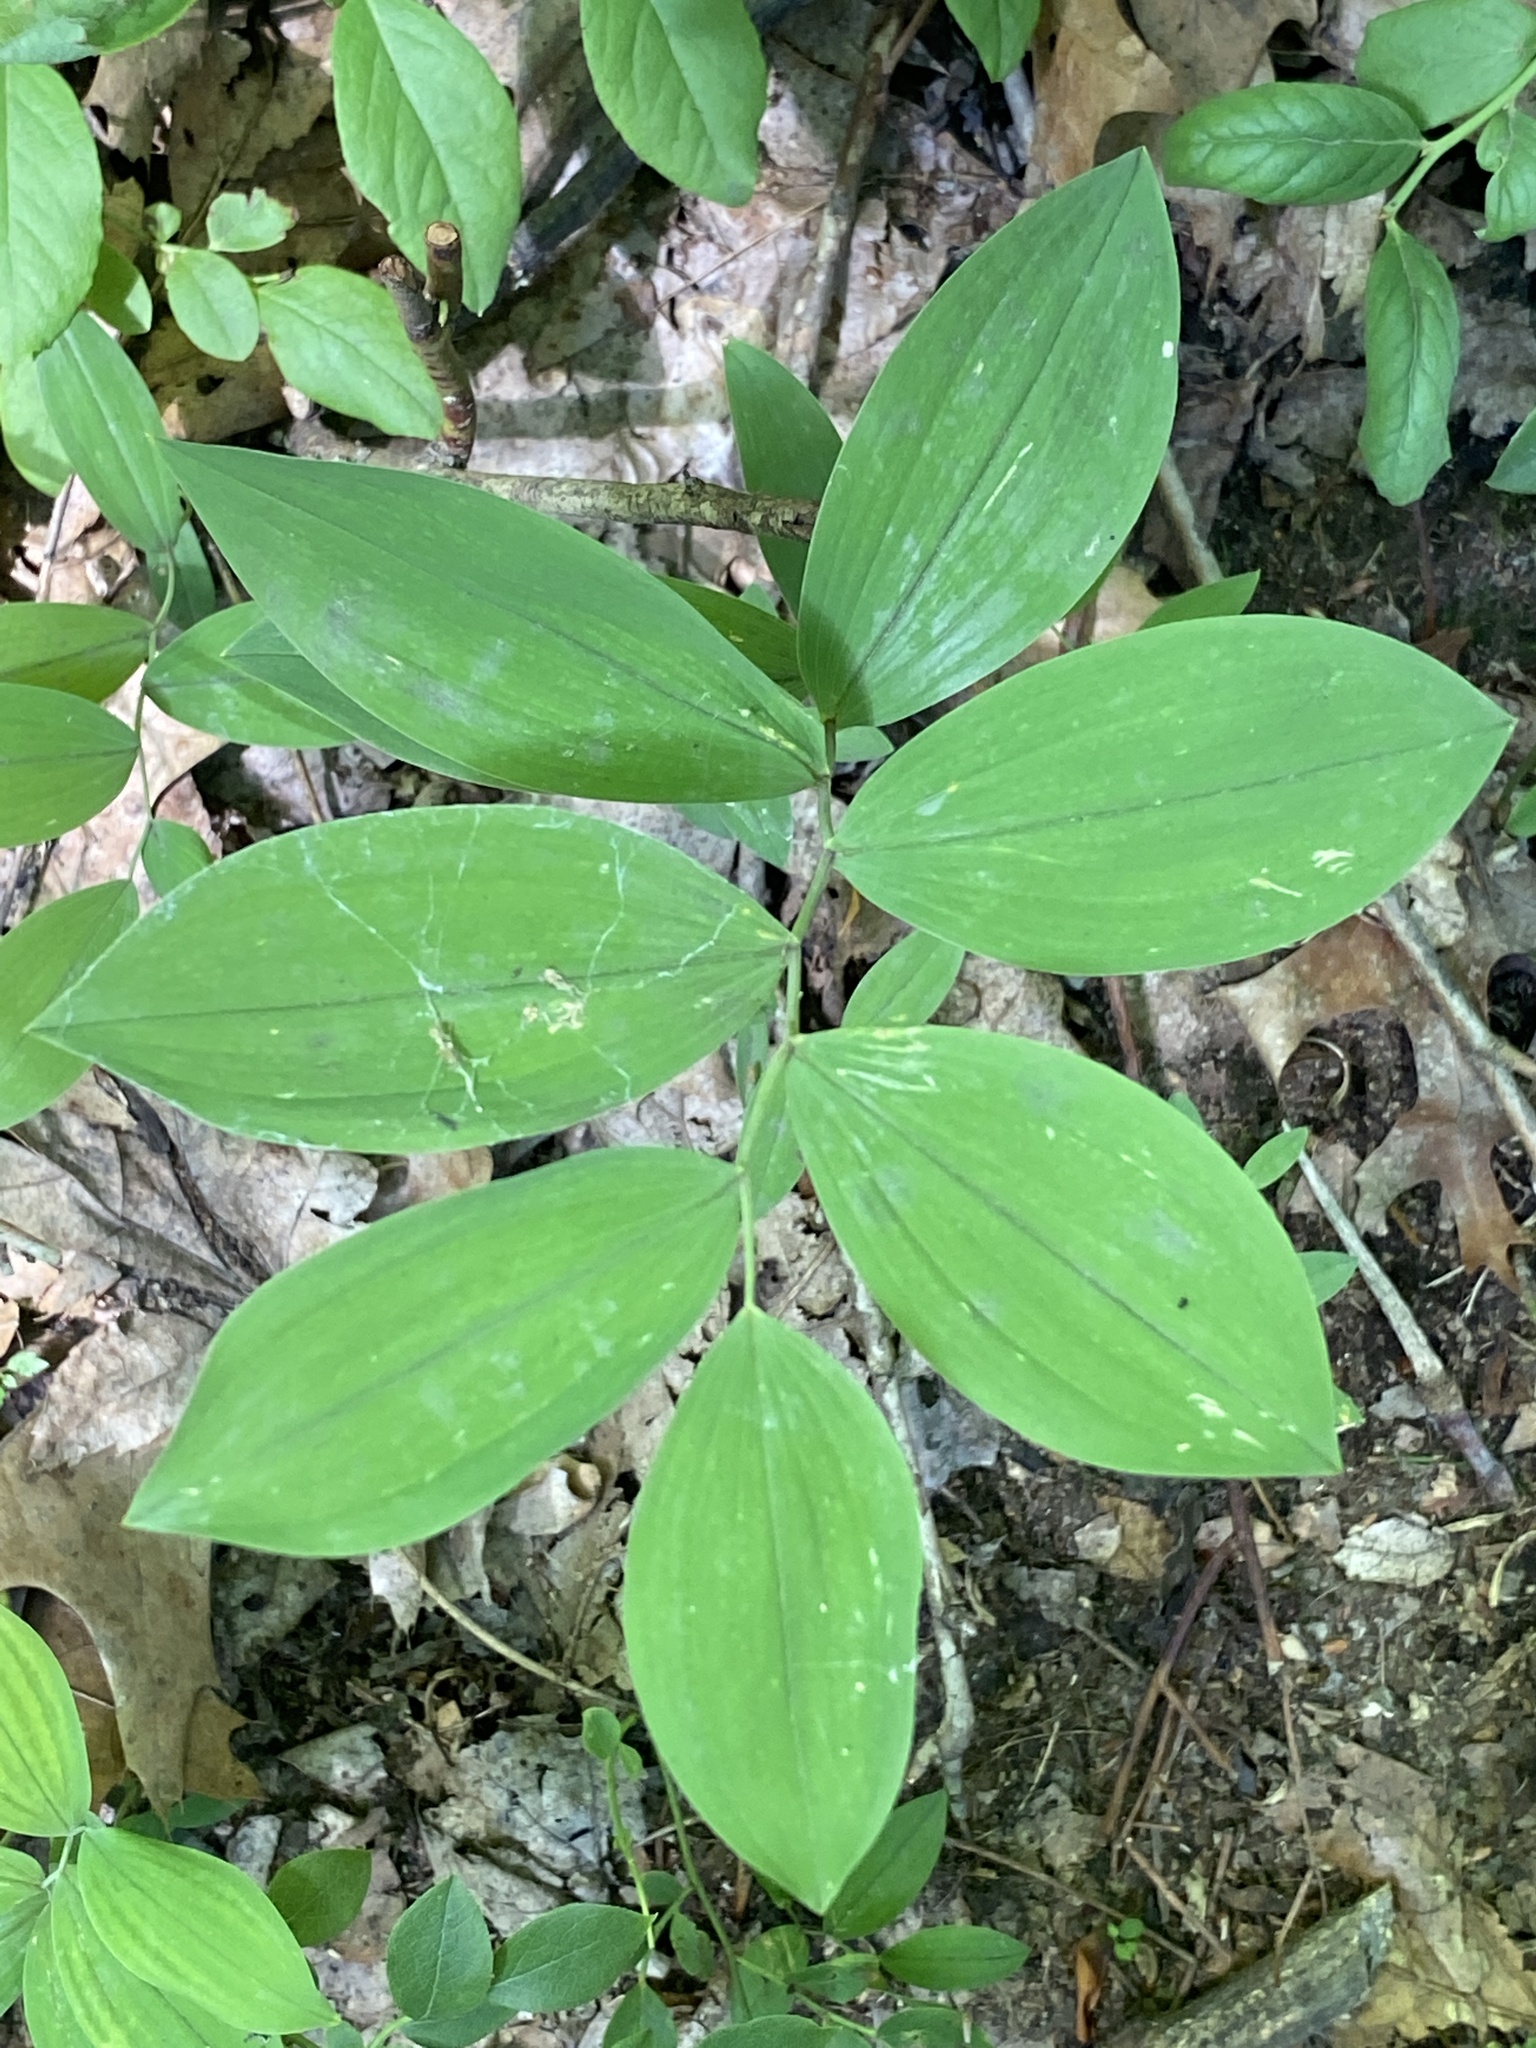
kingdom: Plantae
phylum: Tracheophyta
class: Liliopsida
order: Liliales
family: Colchicaceae
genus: Uvularia
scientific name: Uvularia sessilifolia
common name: Straw-lily
